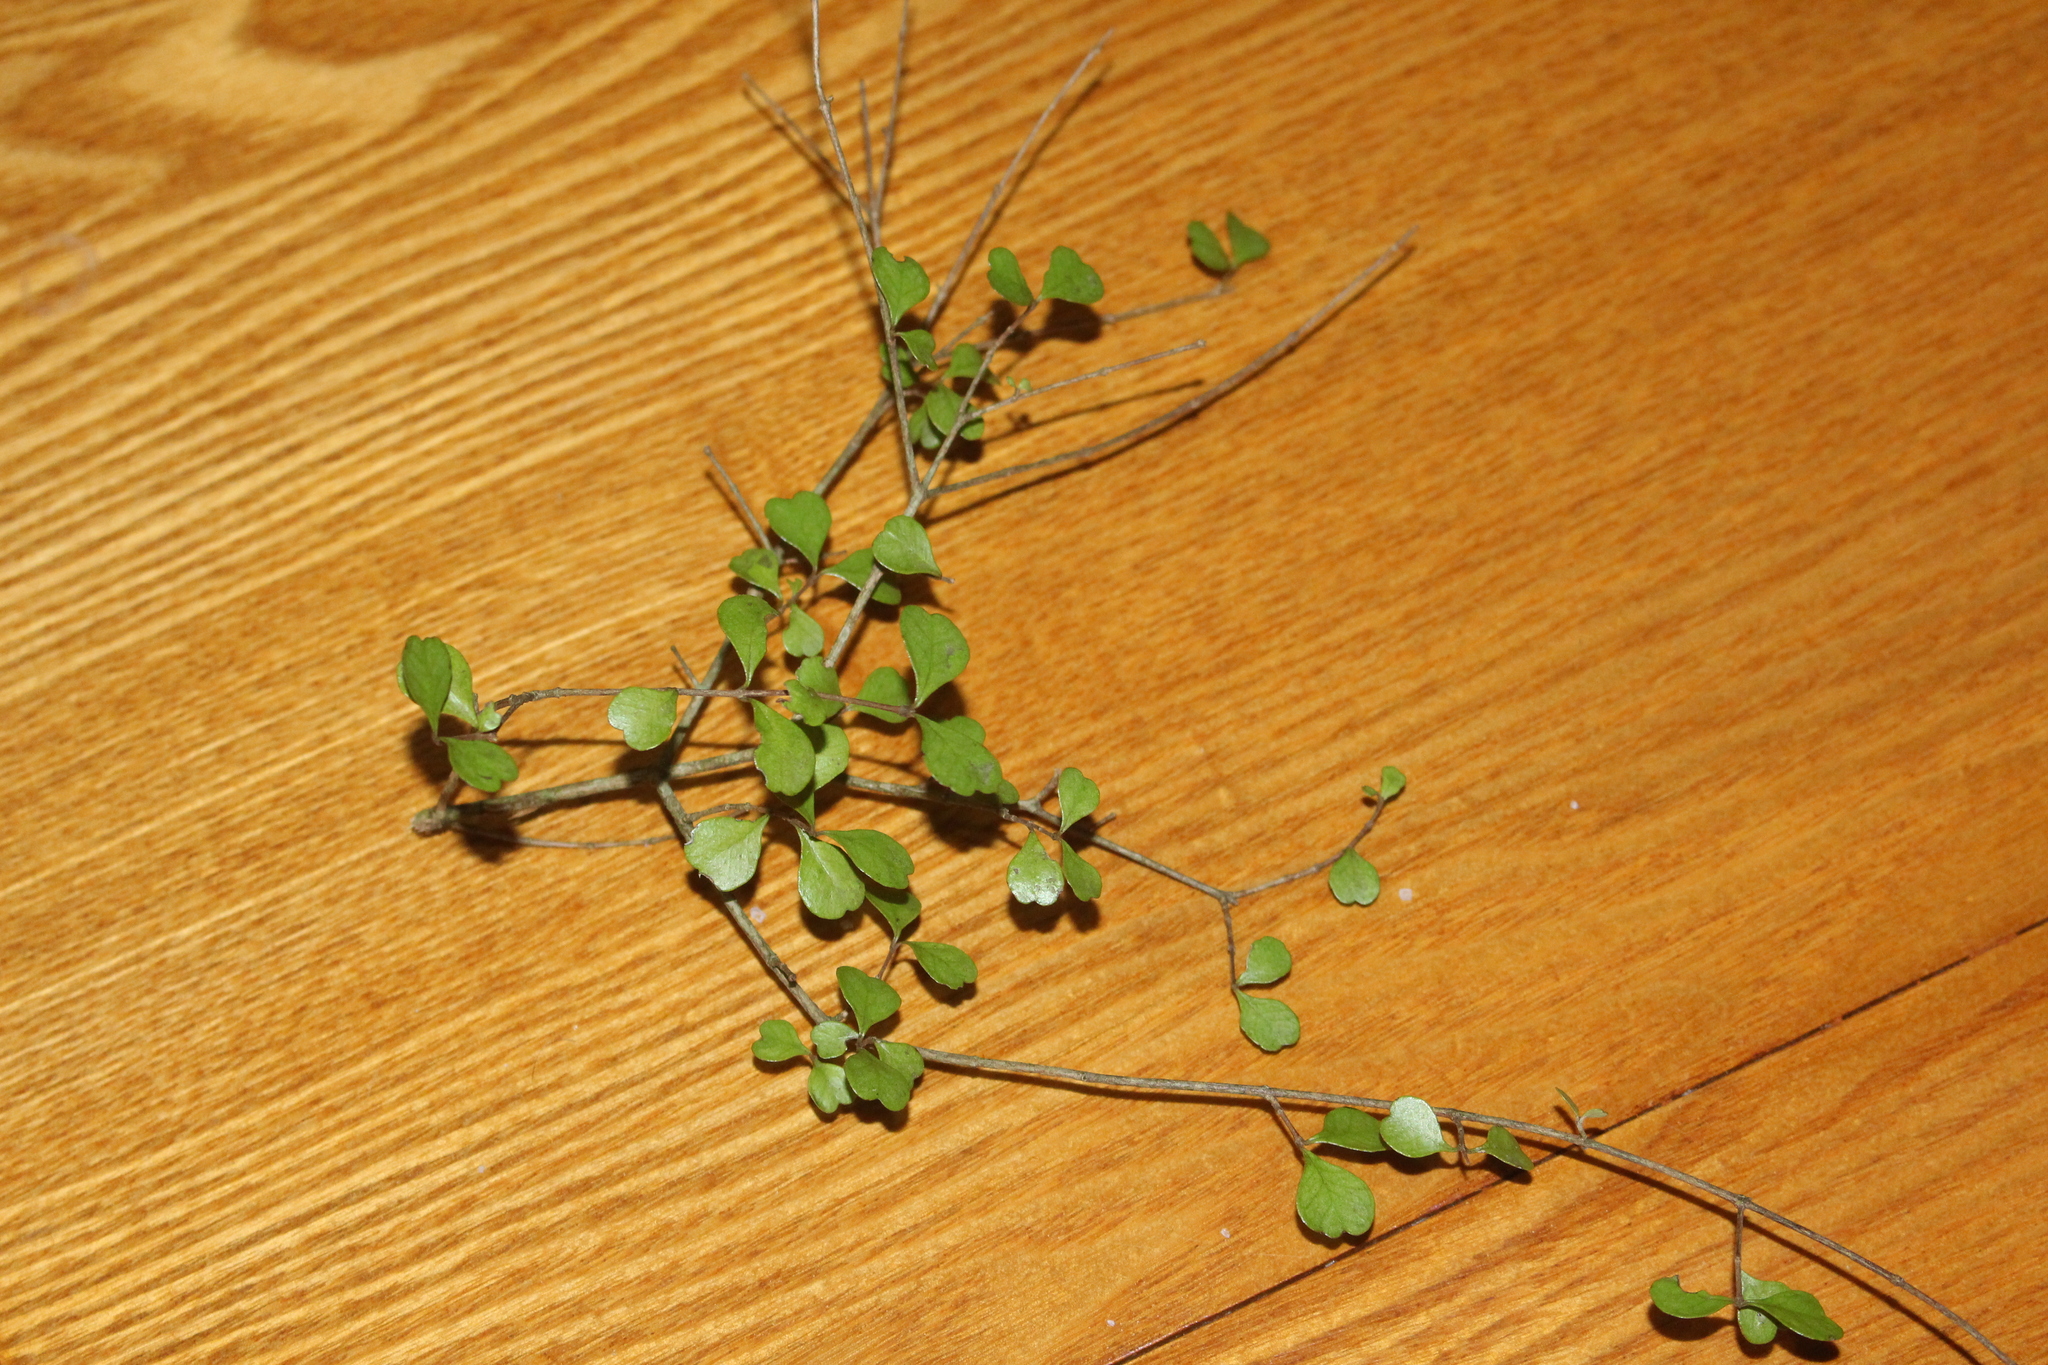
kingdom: Plantae
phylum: Tracheophyta
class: Magnoliopsida
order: Myrtales
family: Myrtaceae
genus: Lophomyrtus
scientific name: Lophomyrtus obcordata
